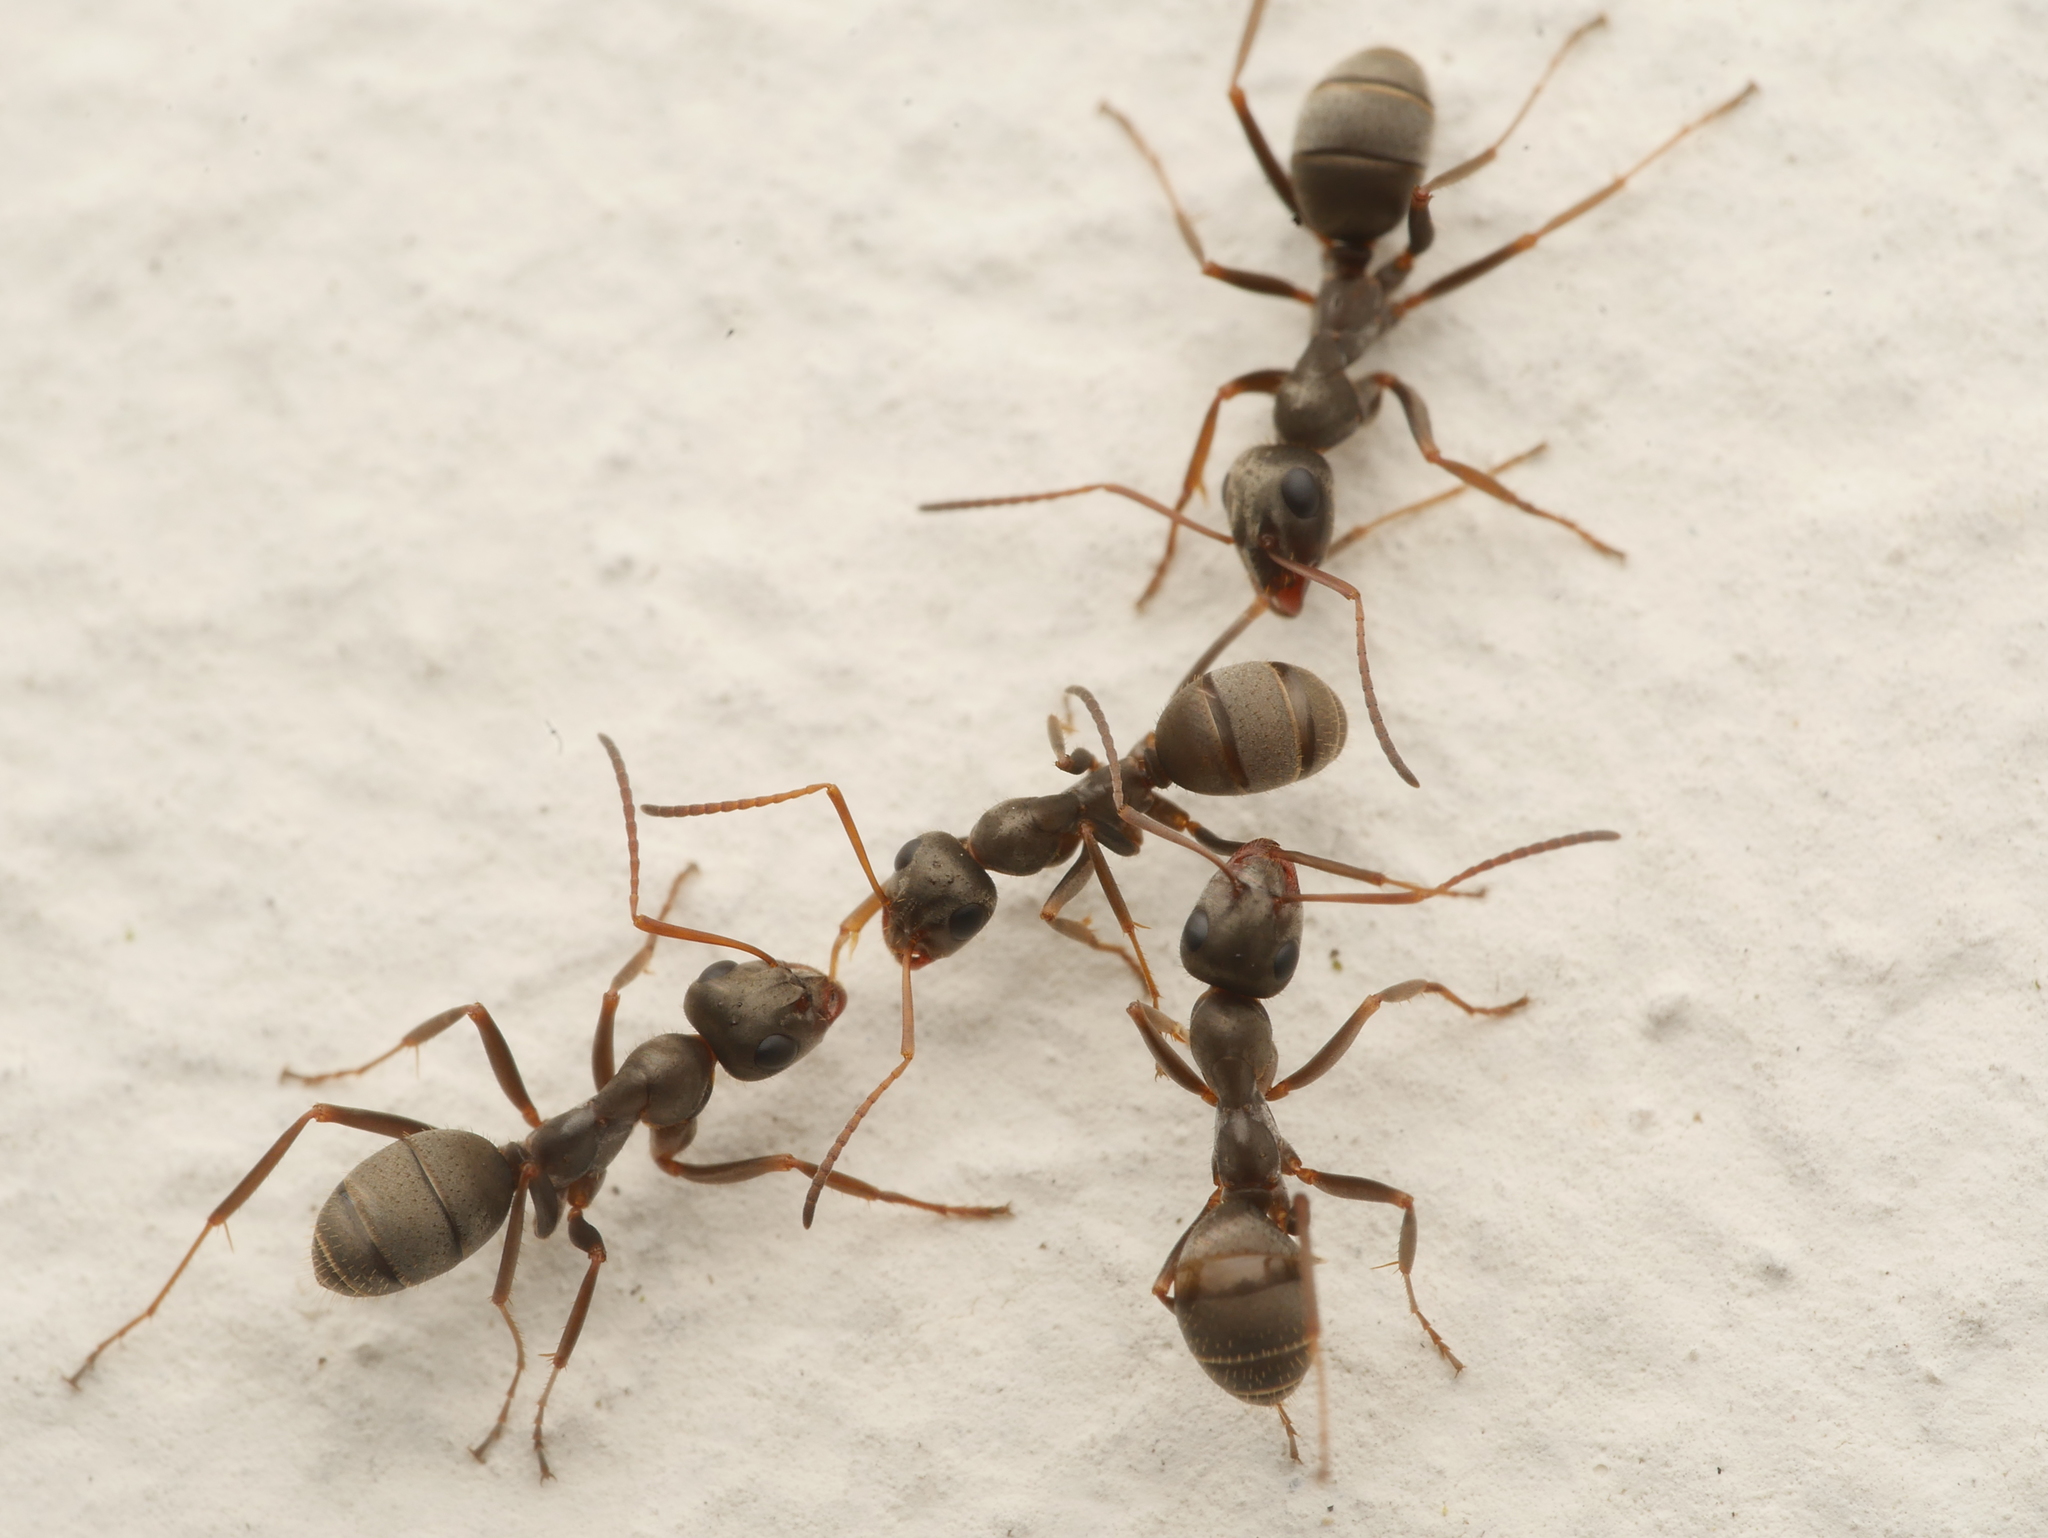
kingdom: Animalia
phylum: Arthropoda
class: Insecta
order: Hymenoptera
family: Formicidae
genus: Formica
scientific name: Formica cinerea
